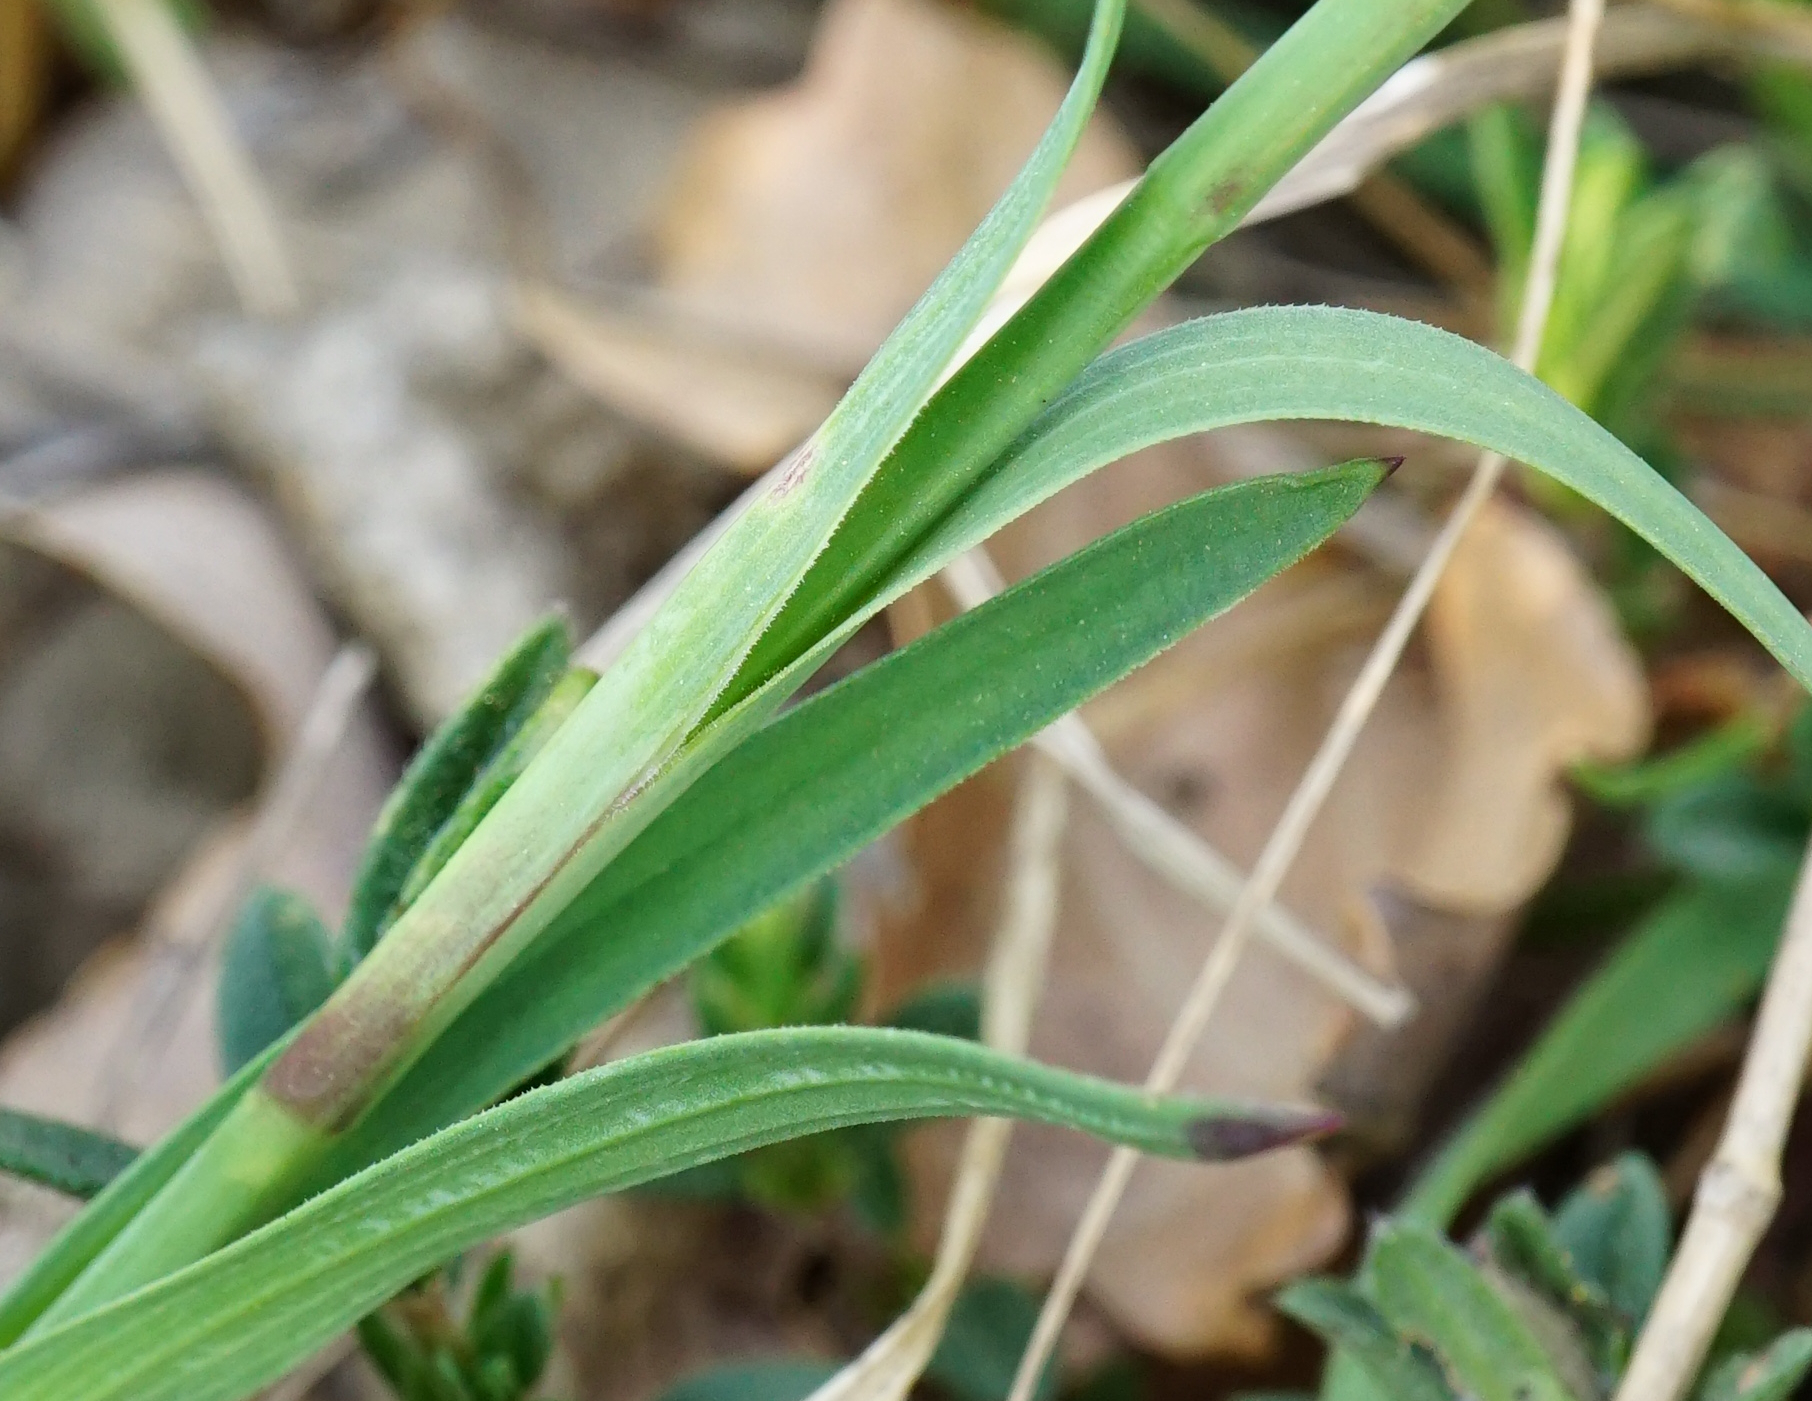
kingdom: Plantae
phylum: Tracheophyta
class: Magnoliopsida
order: Caryophyllales
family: Caryophyllaceae
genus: Dianthus
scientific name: Dianthus carthusianorum
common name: Carthusian pink
